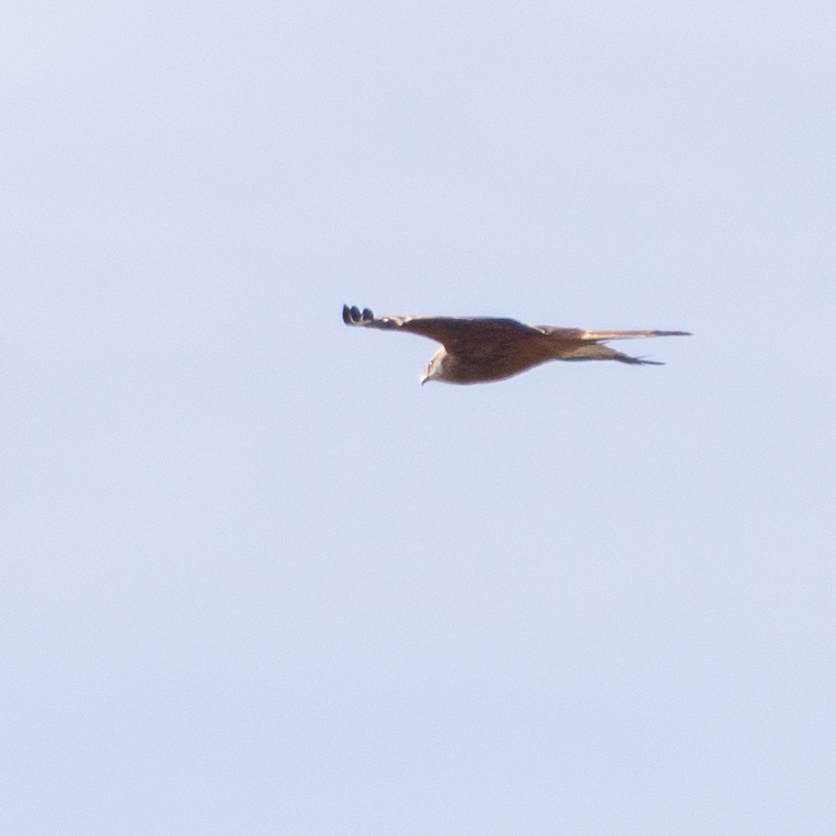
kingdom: Animalia
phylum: Chordata
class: Aves
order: Accipitriformes
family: Accipitridae
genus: Milvus
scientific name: Milvus milvus
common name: Red kite
